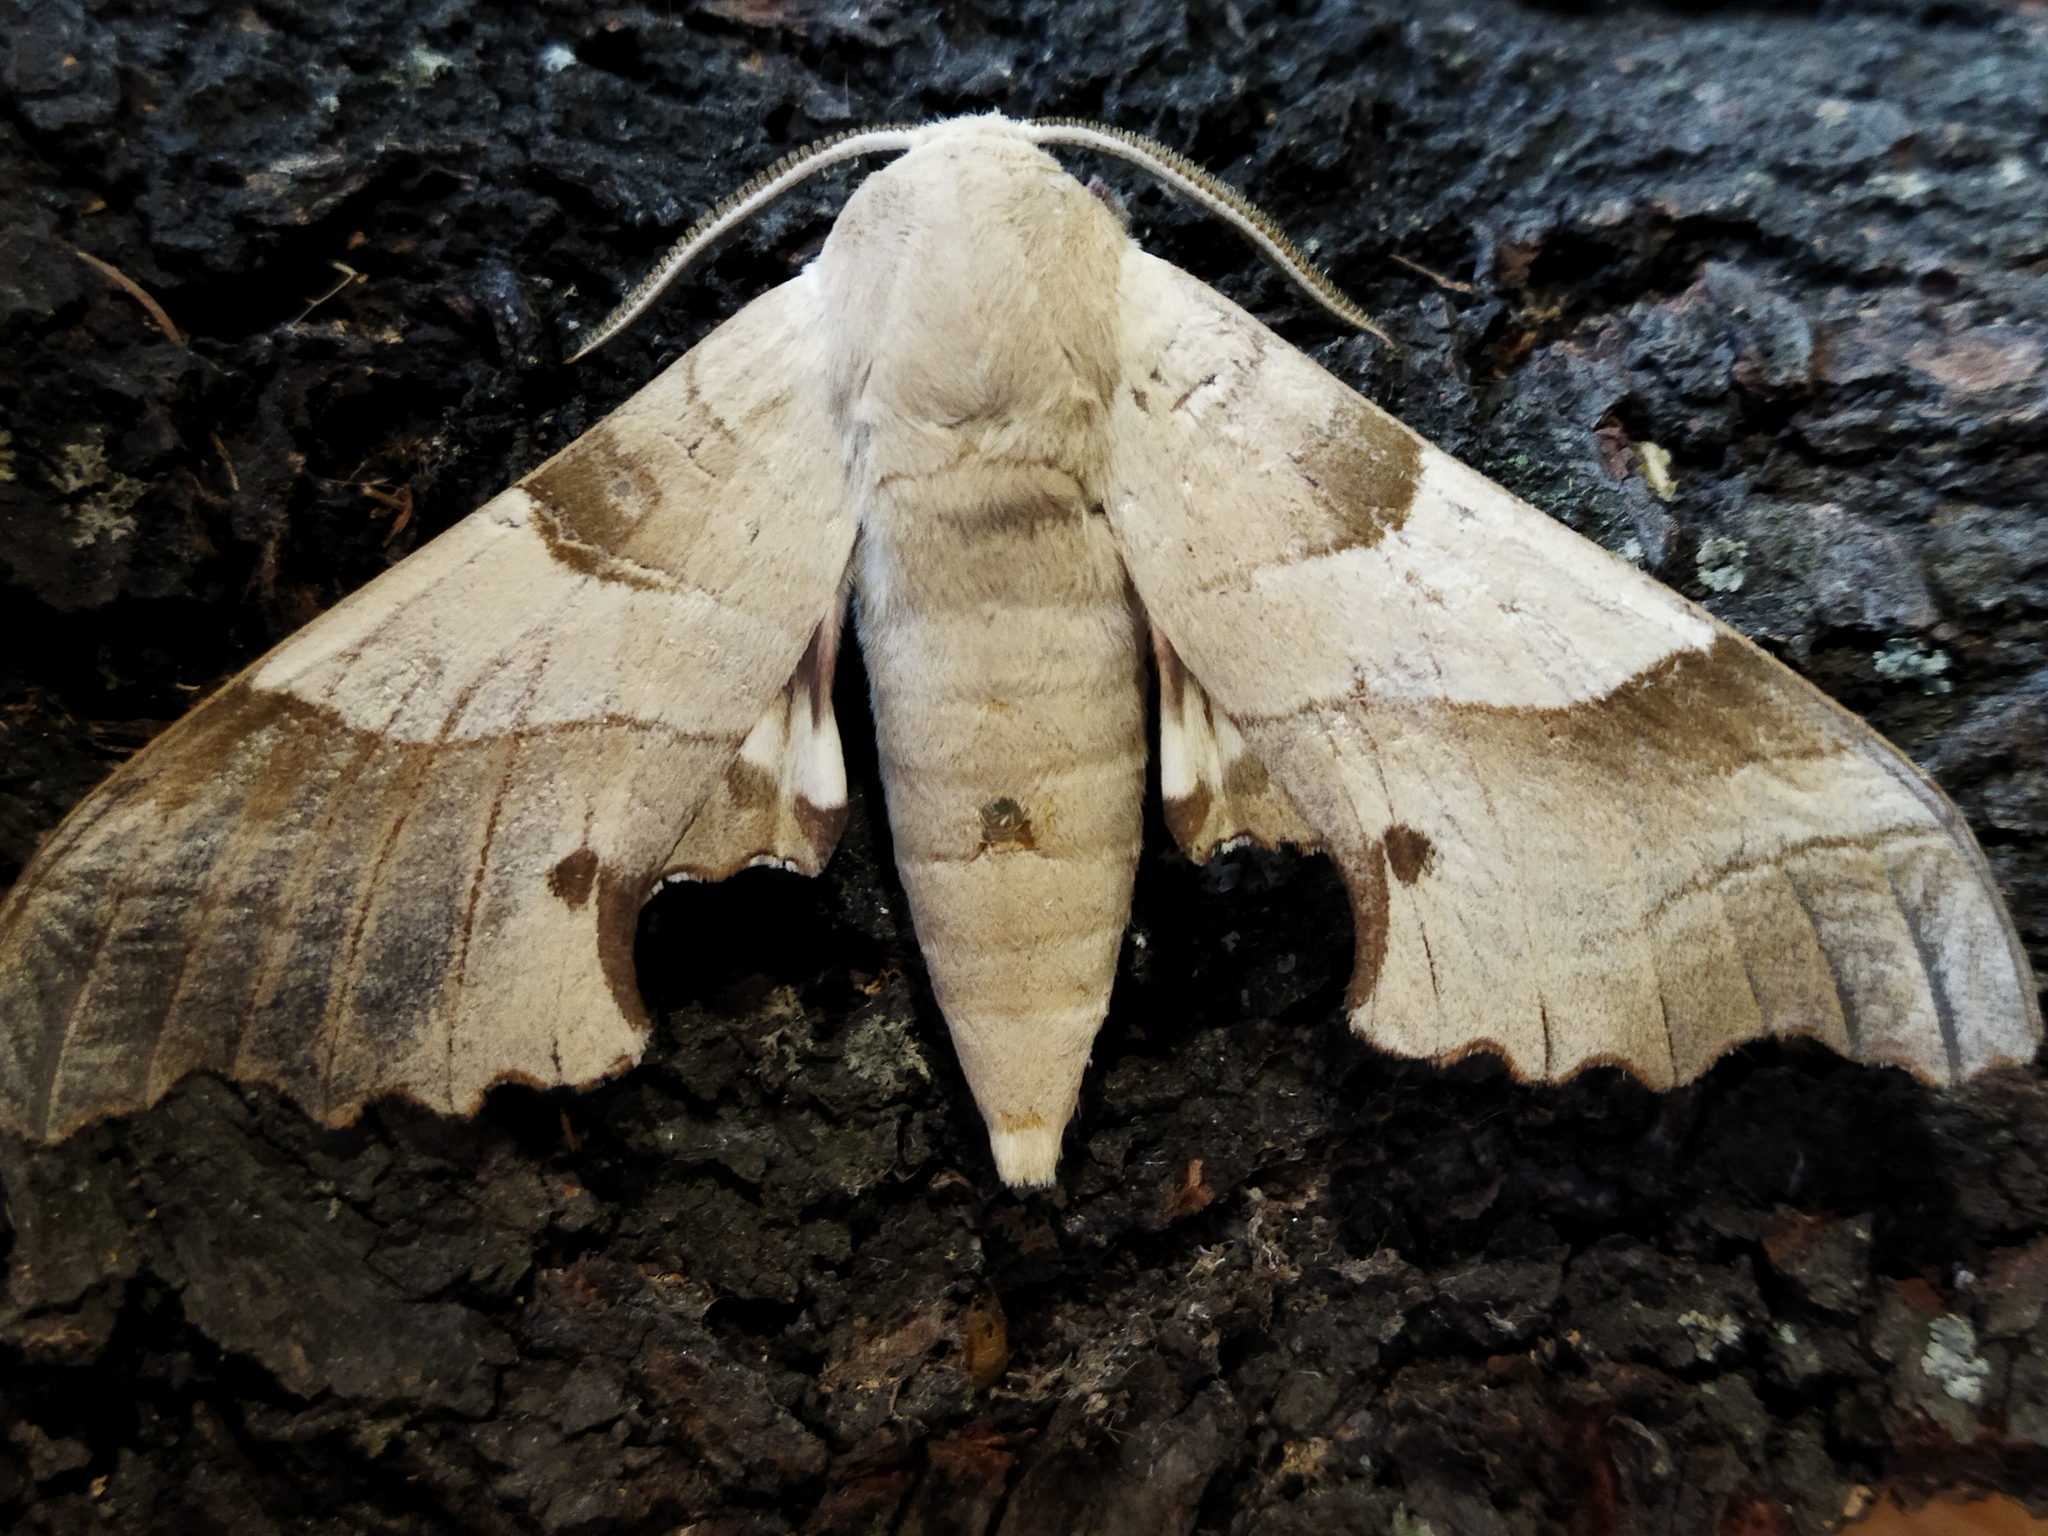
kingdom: Animalia
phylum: Arthropoda
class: Insecta
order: Lepidoptera
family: Sphingidae
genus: Marumba
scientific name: Marumba quercus
